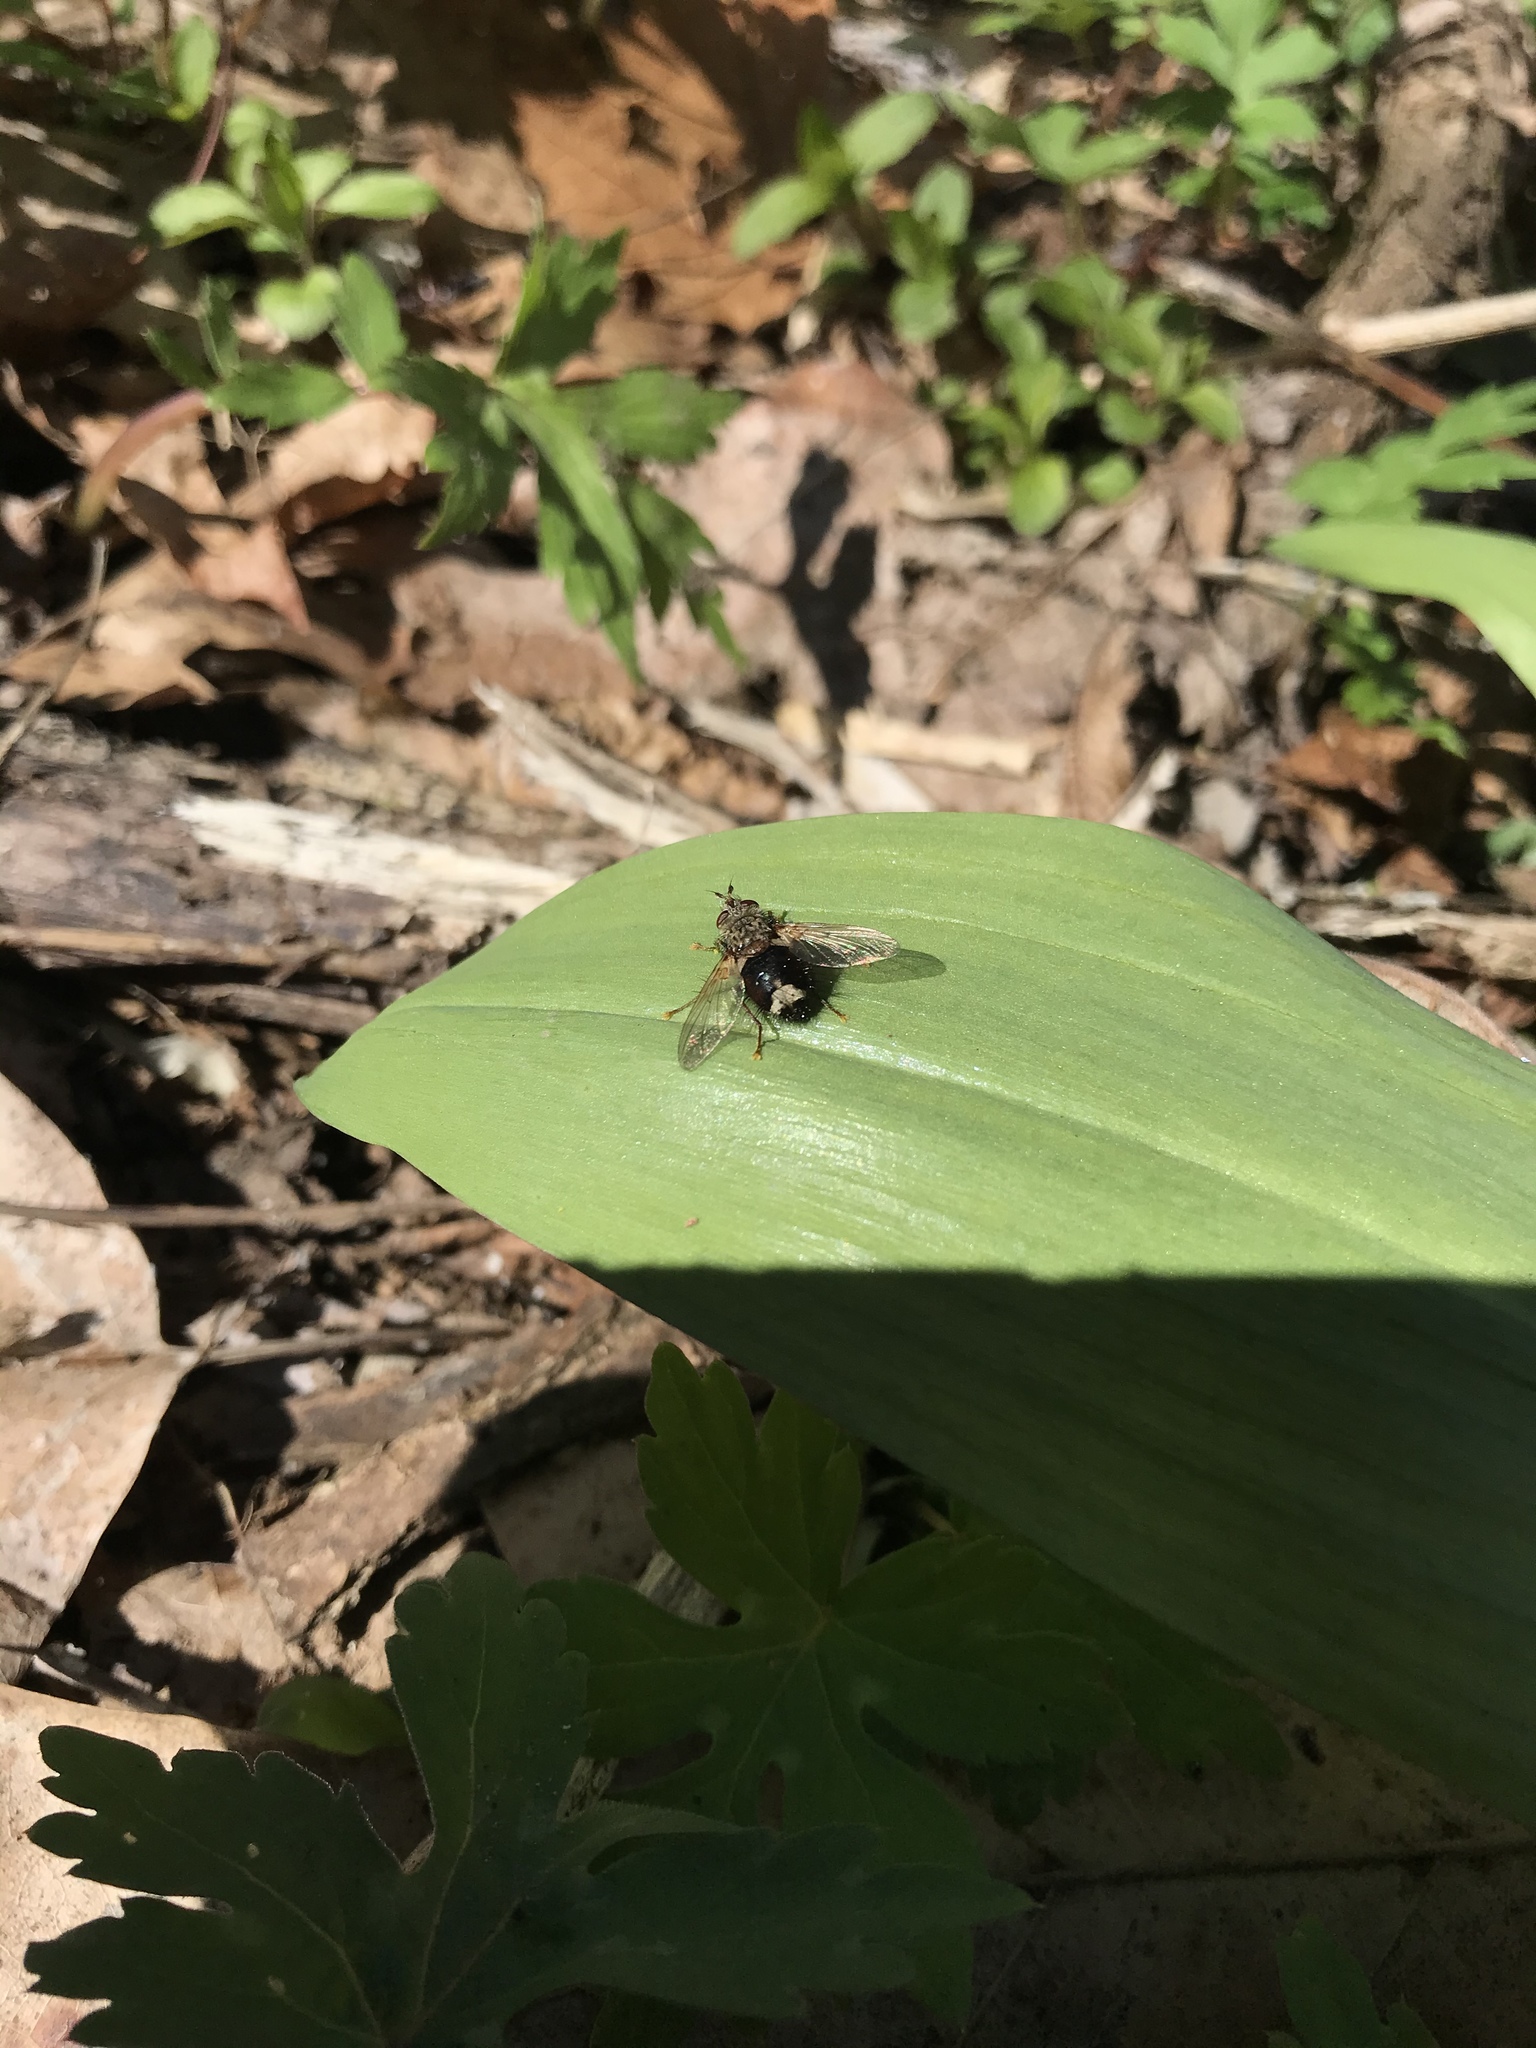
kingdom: Animalia
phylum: Arthropoda
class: Insecta
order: Diptera
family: Tachinidae
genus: Epalpus
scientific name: Epalpus signifer
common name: Early tachinid fly
